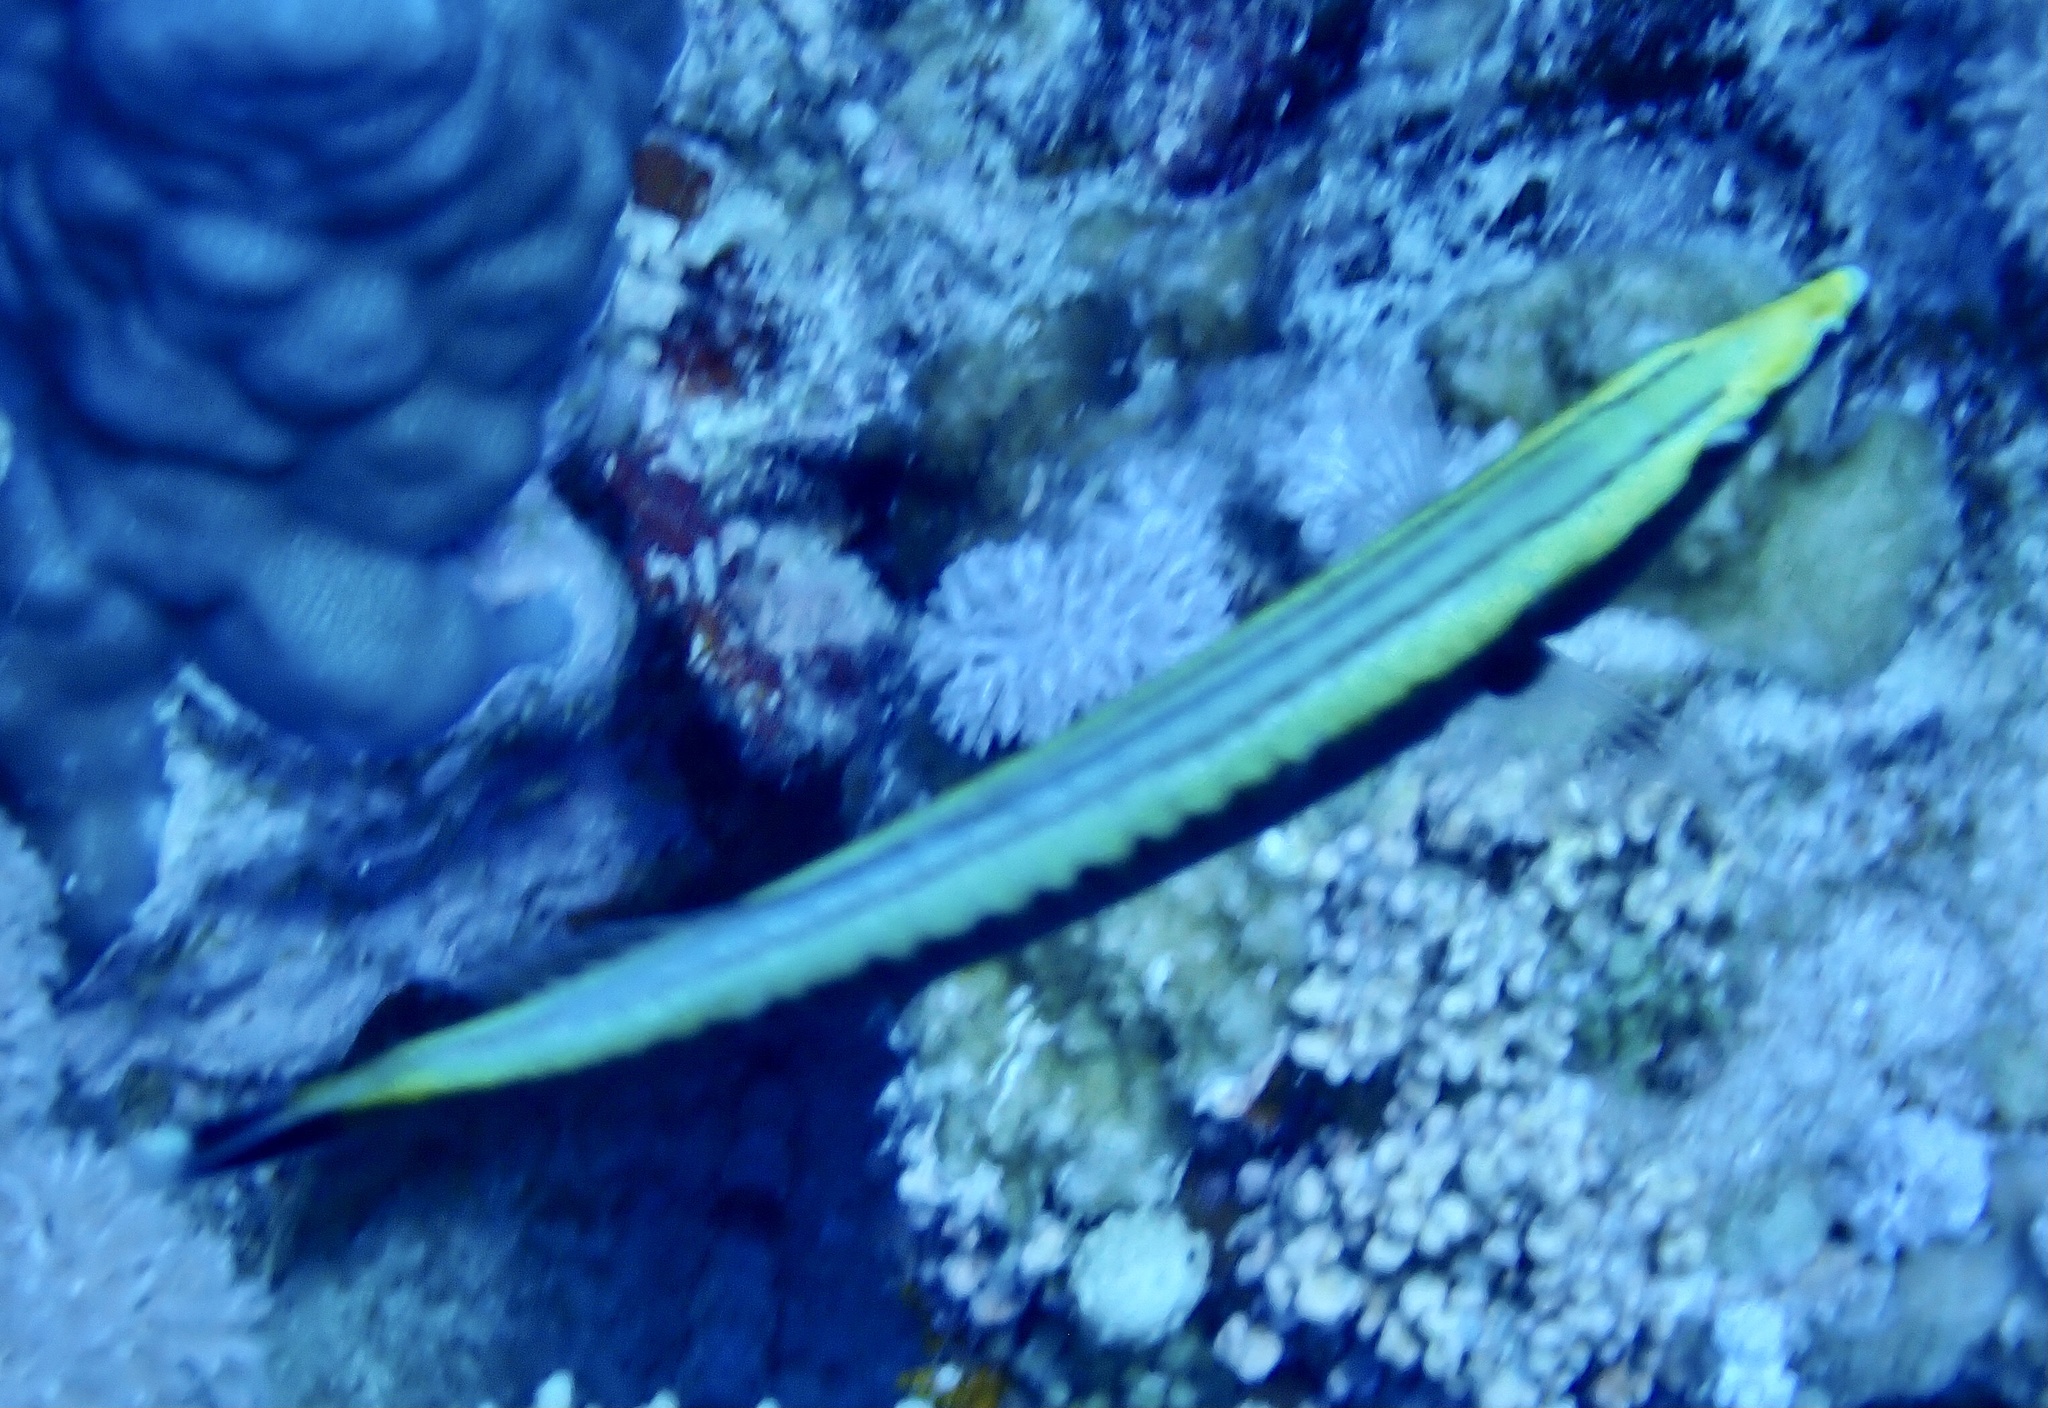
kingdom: Animalia
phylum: Chordata
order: Perciformes
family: Labridae
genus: Hologymnosus
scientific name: Hologymnosus annulatus
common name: Ring wrasse
